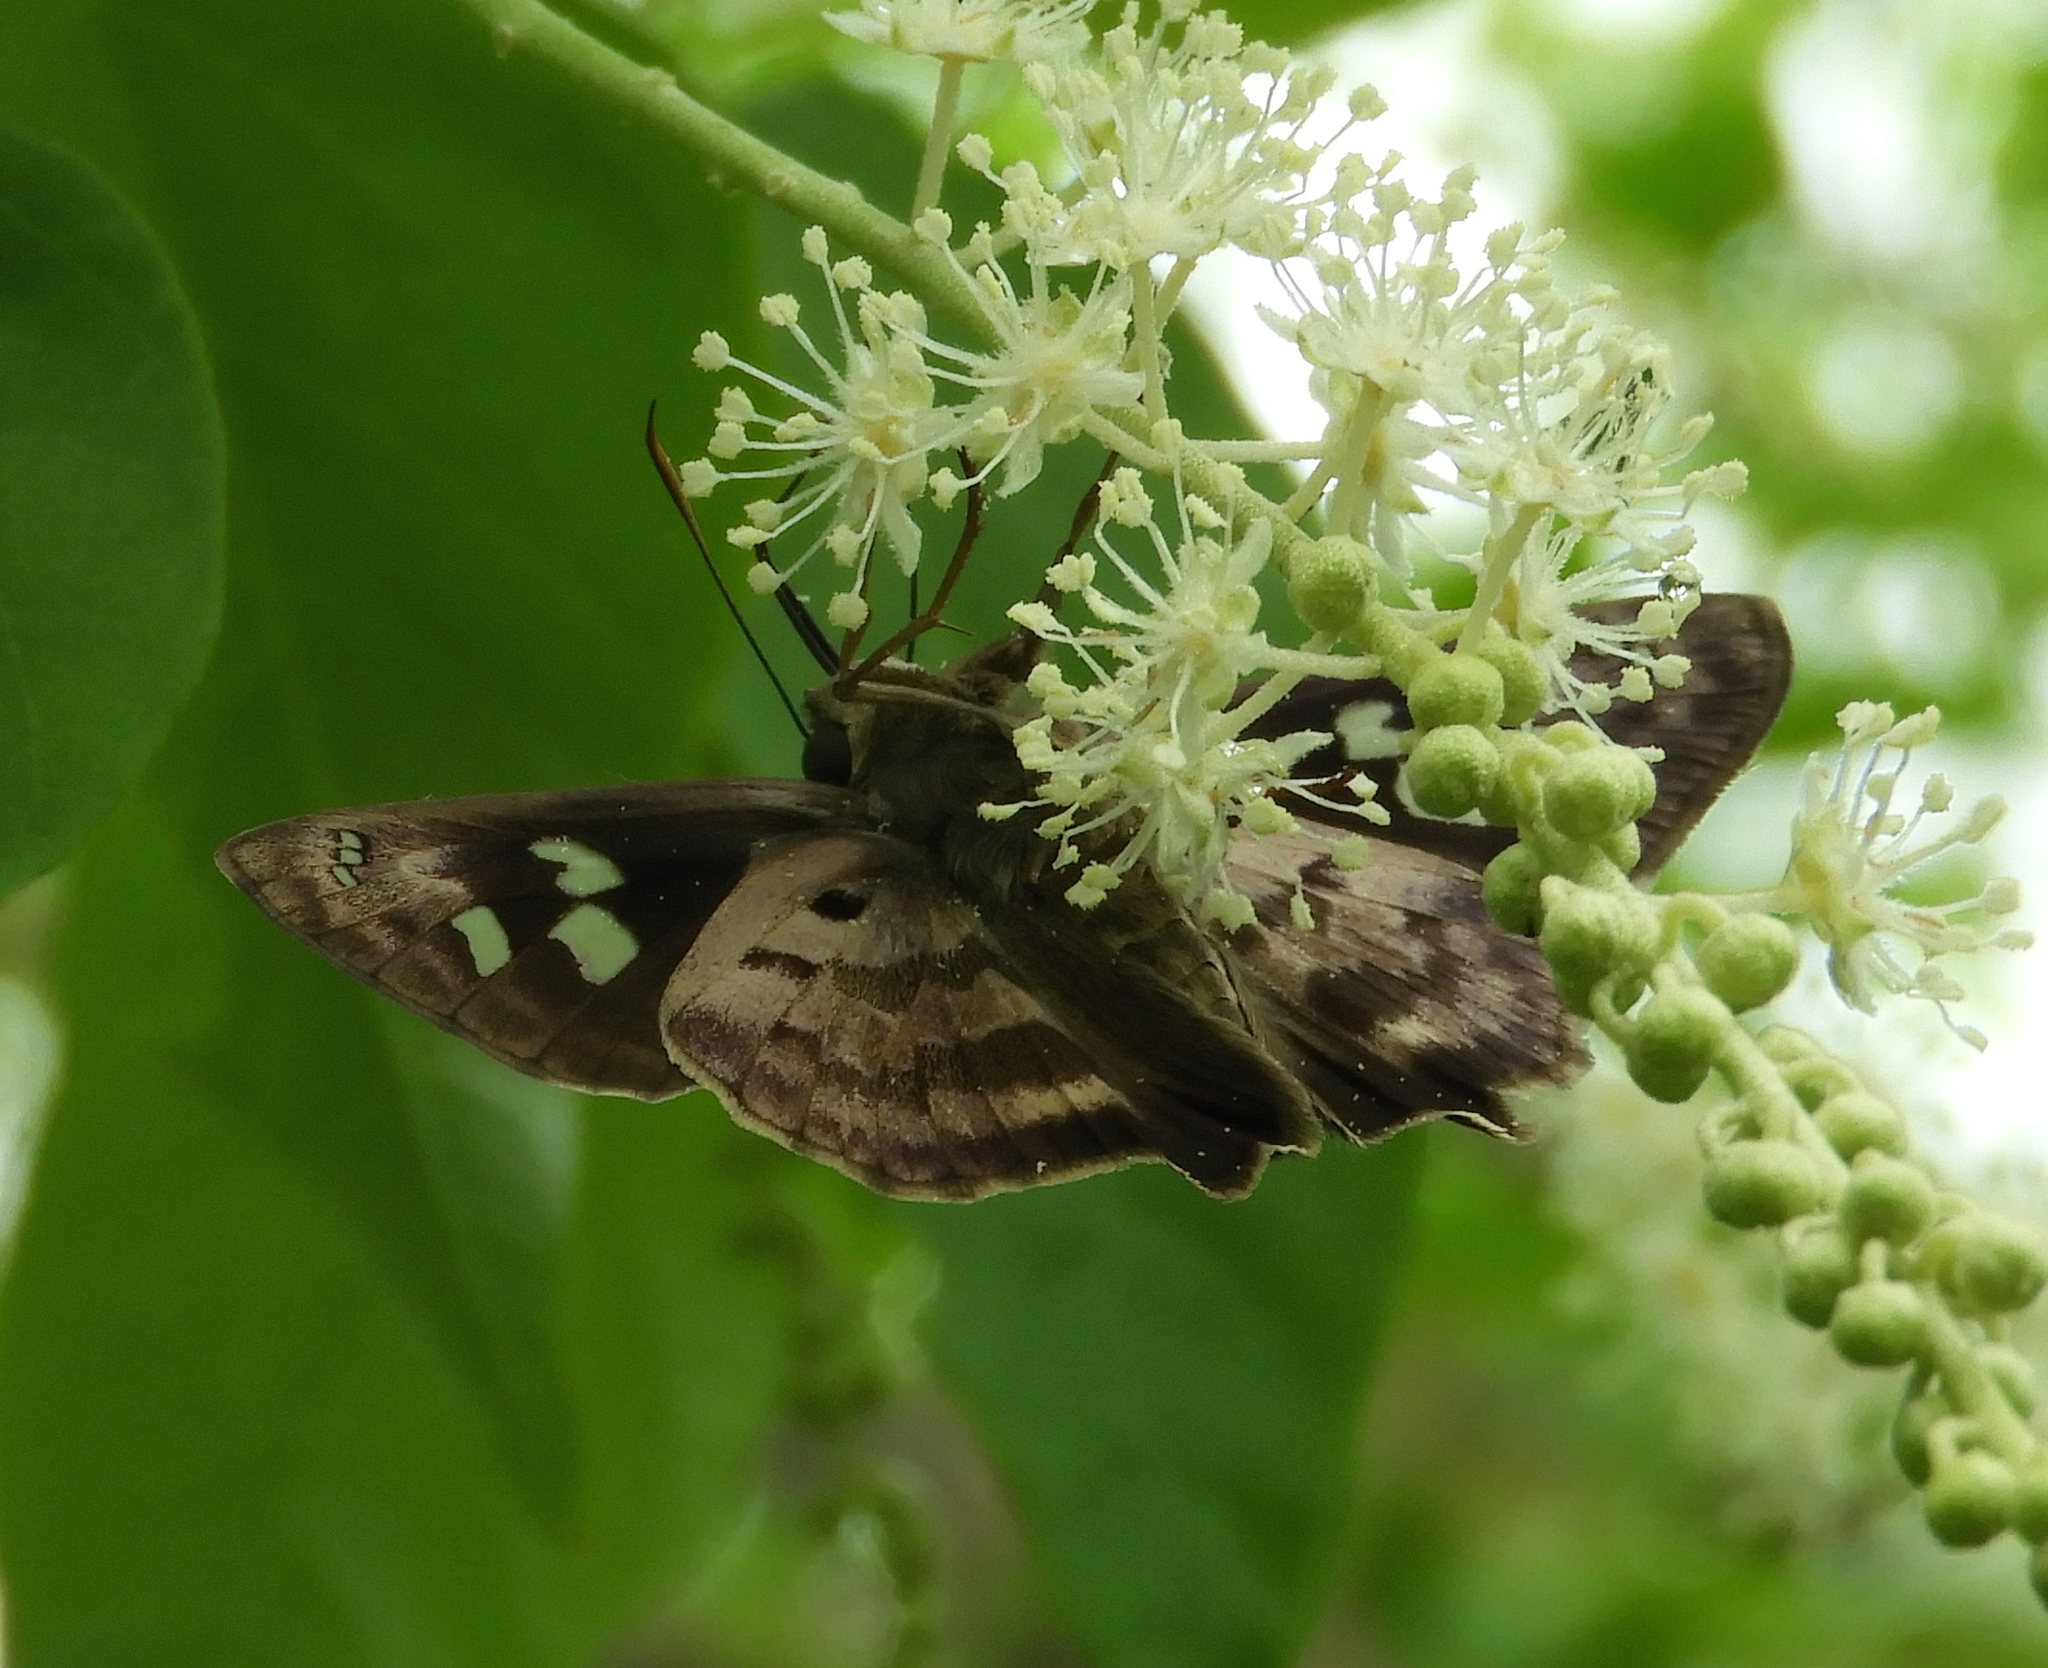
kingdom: Animalia
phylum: Arthropoda
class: Insecta
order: Lepidoptera
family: Hesperiidae
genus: Polygonus
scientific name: Polygonus leo
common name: Hammoch skipper
